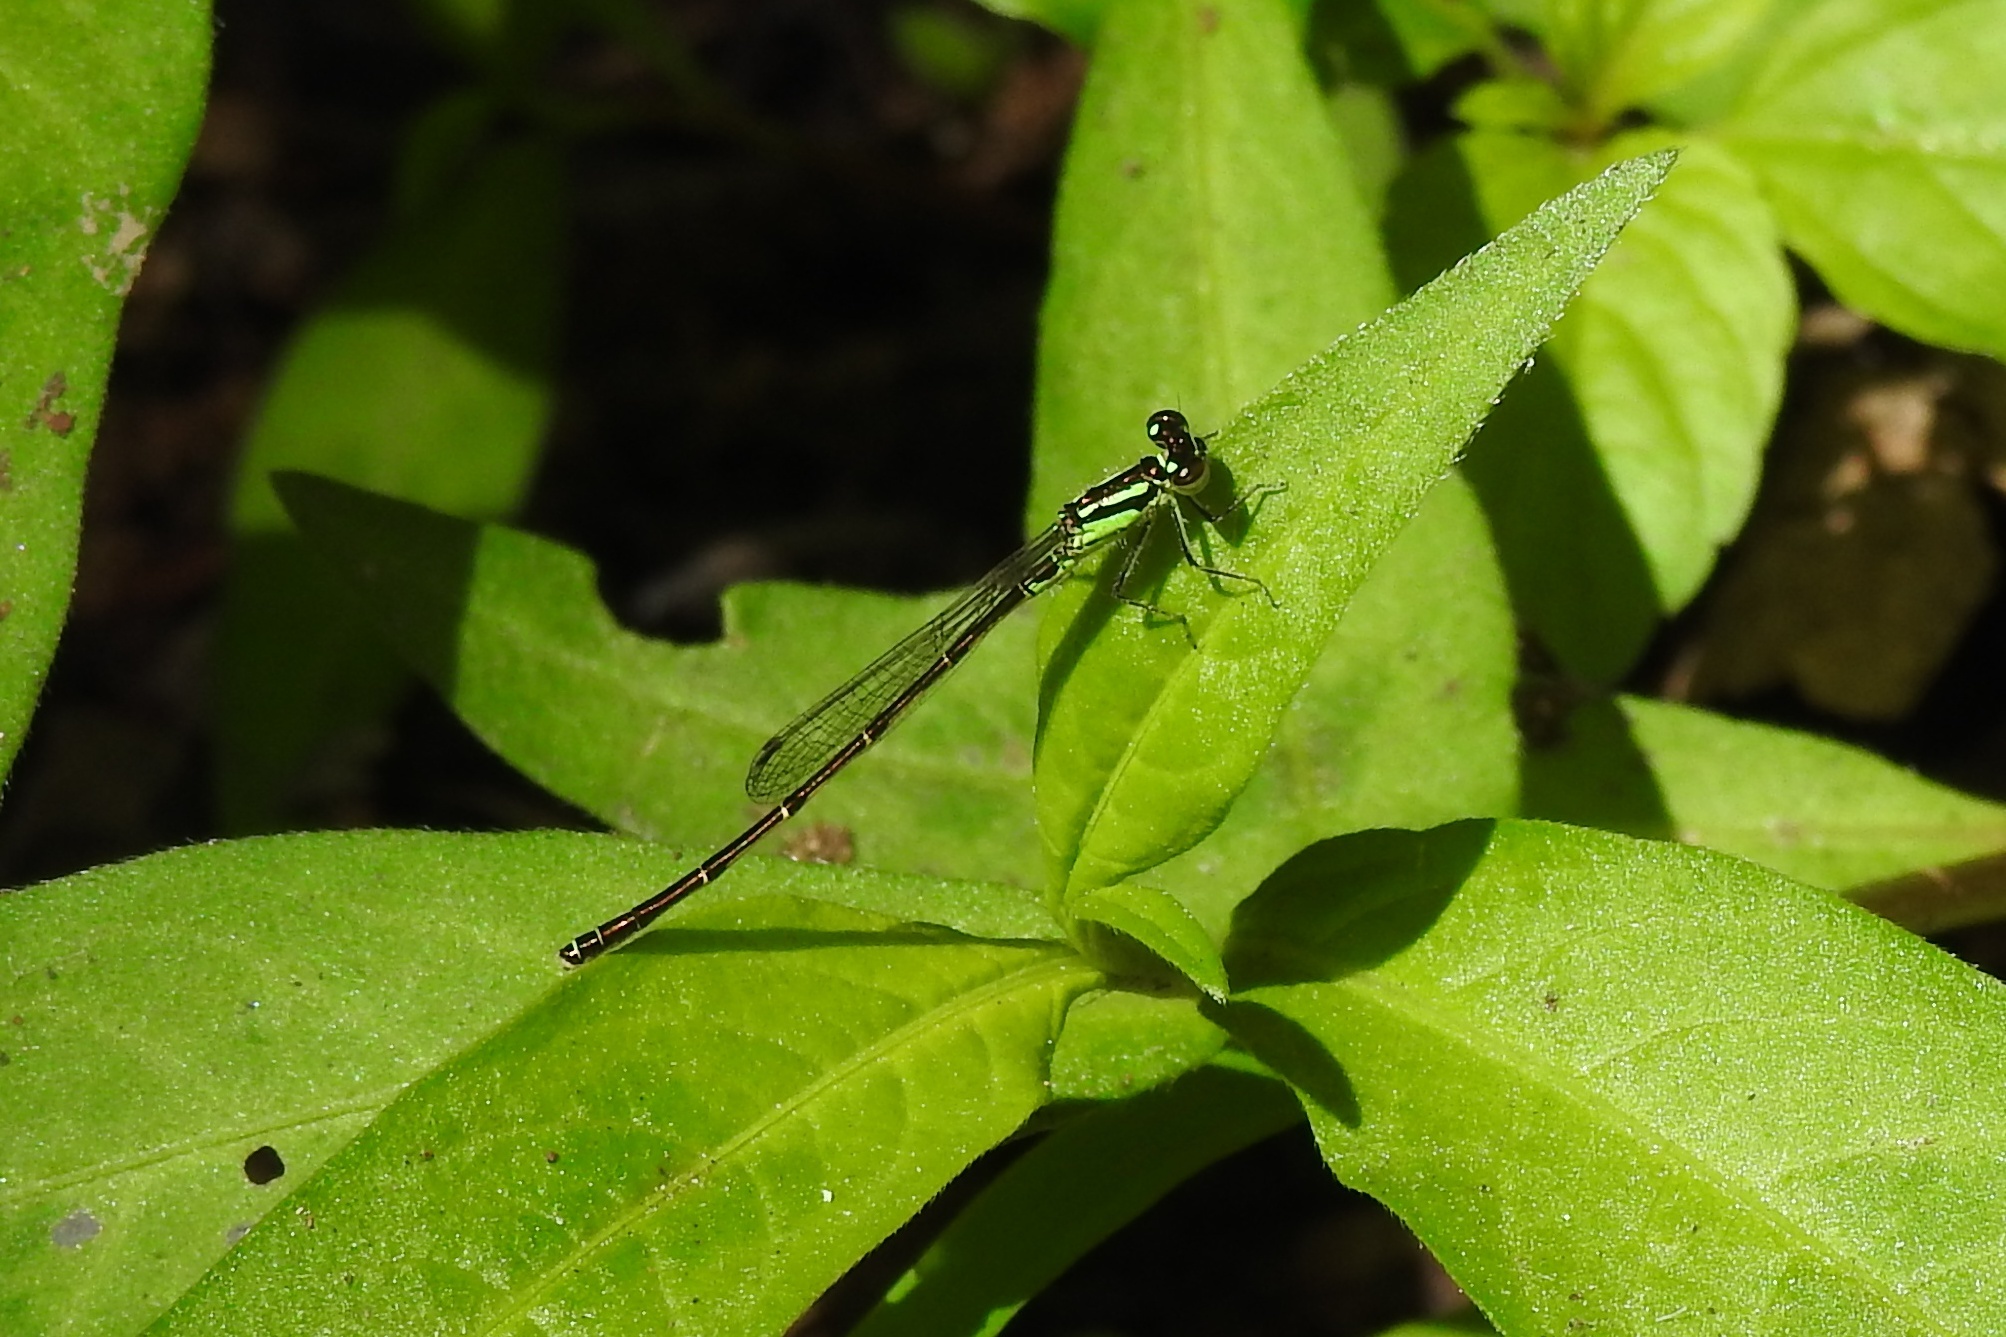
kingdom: Animalia
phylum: Arthropoda
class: Insecta
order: Odonata
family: Coenagrionidae
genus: Ischnura
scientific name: Ischnura posita
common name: Fragile forktail
